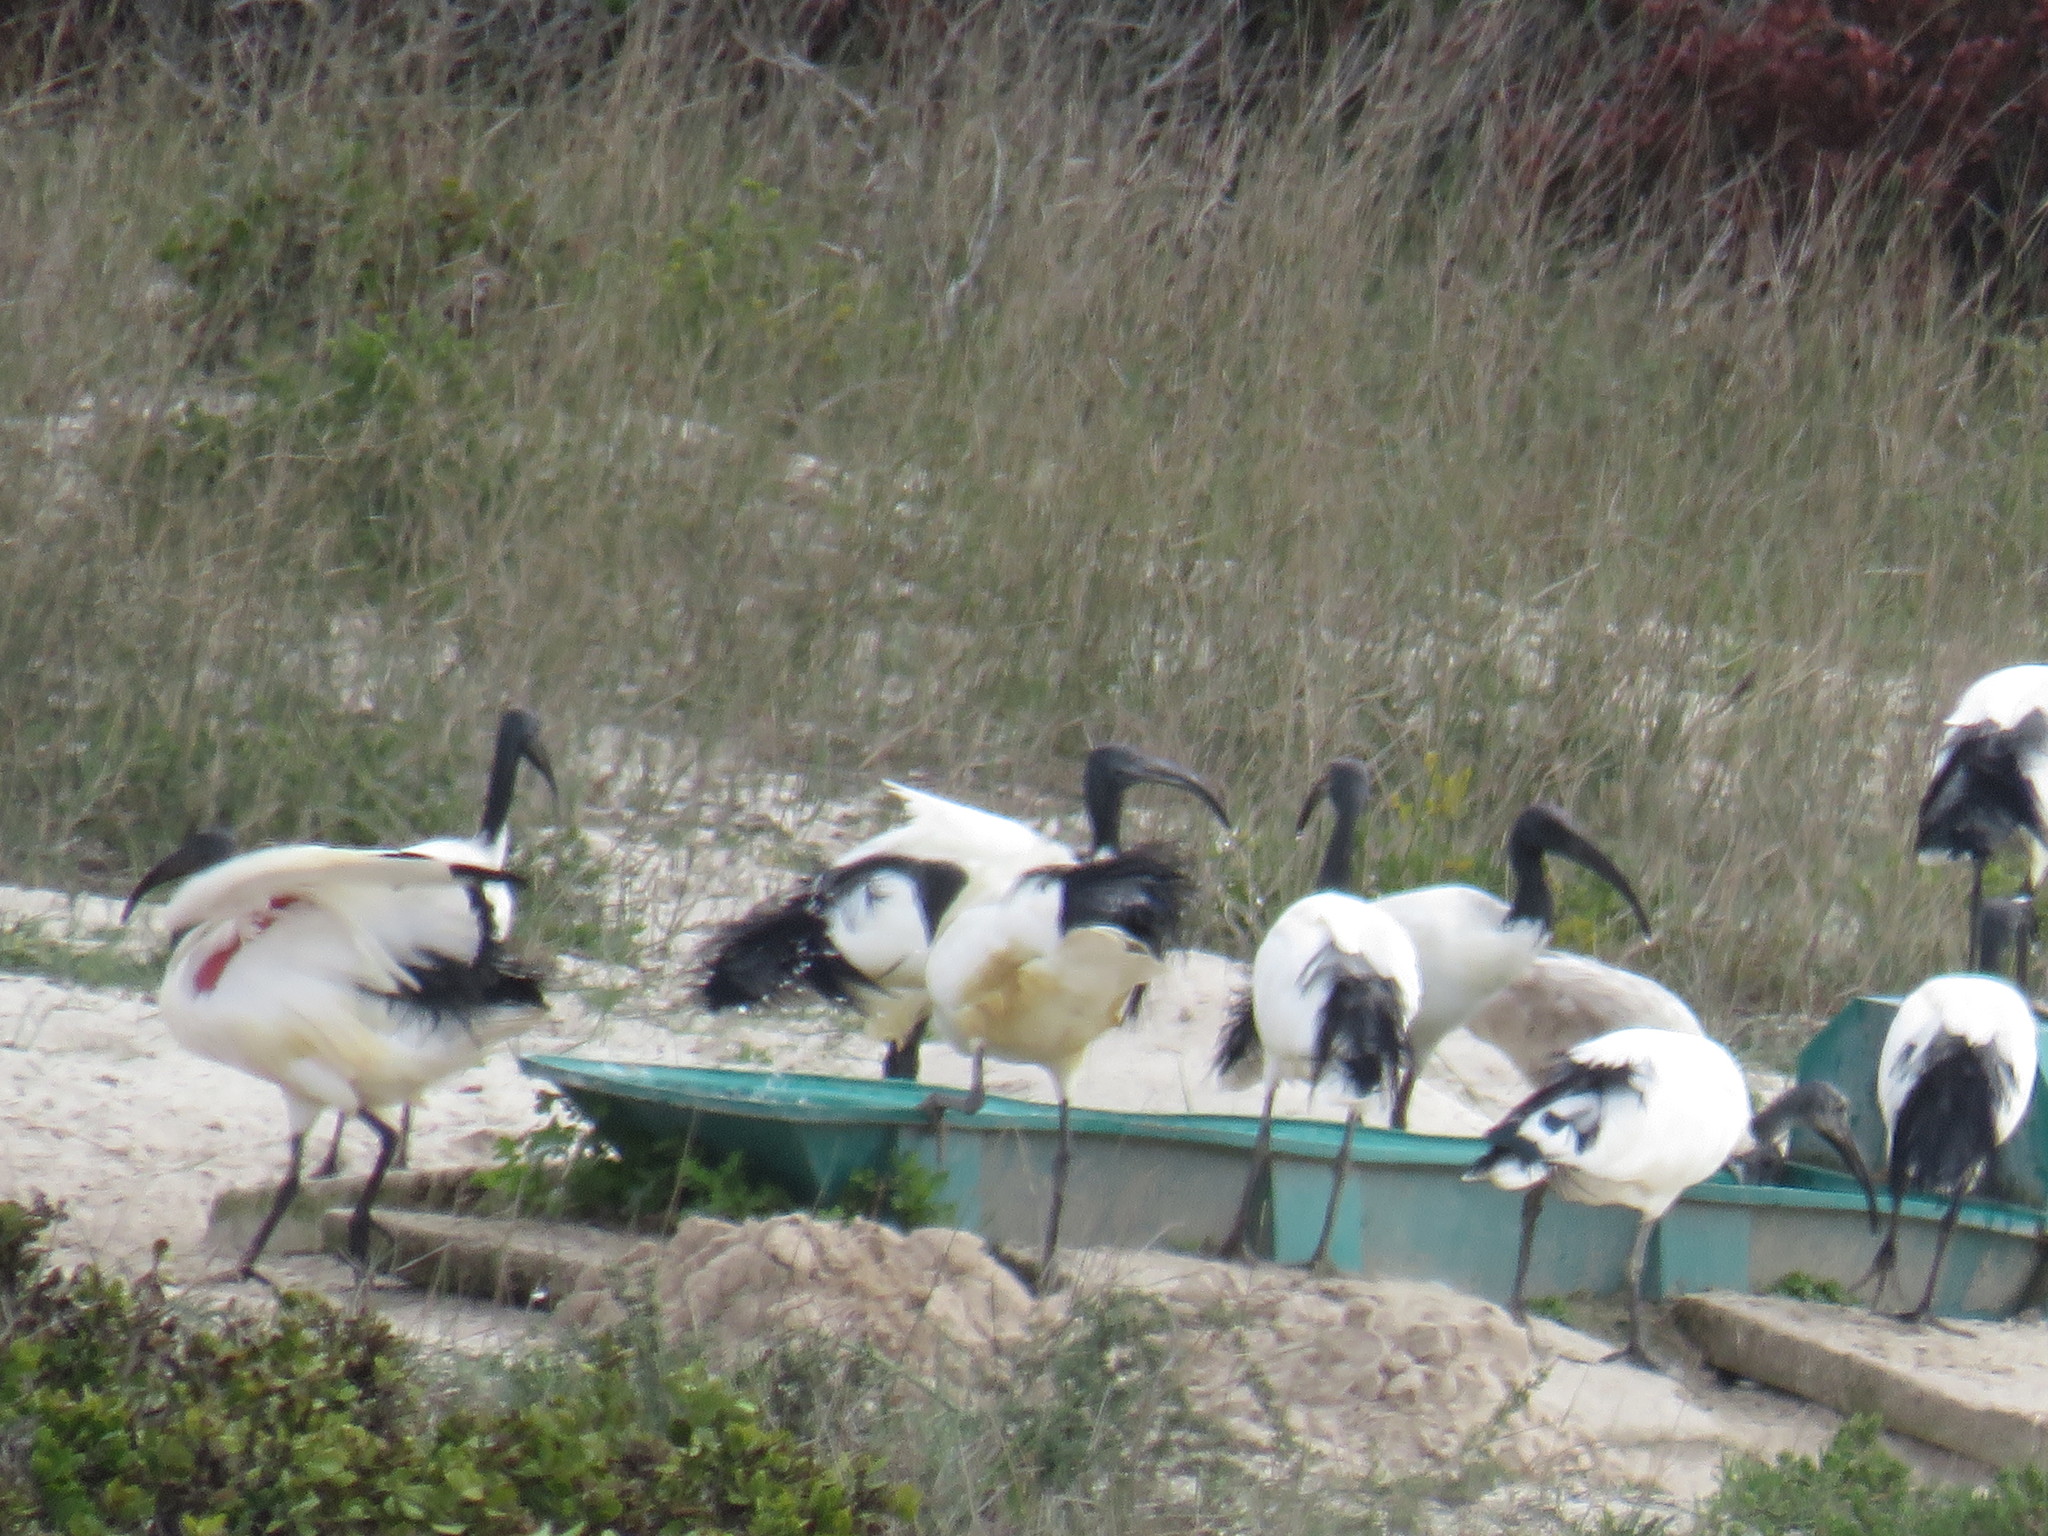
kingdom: Animalia
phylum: Chordata
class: Aves
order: Pelecaniformes
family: Threskiornithidae
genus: Threskiornis
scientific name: Threskiornis aethiopicus
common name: Sacred ibis
